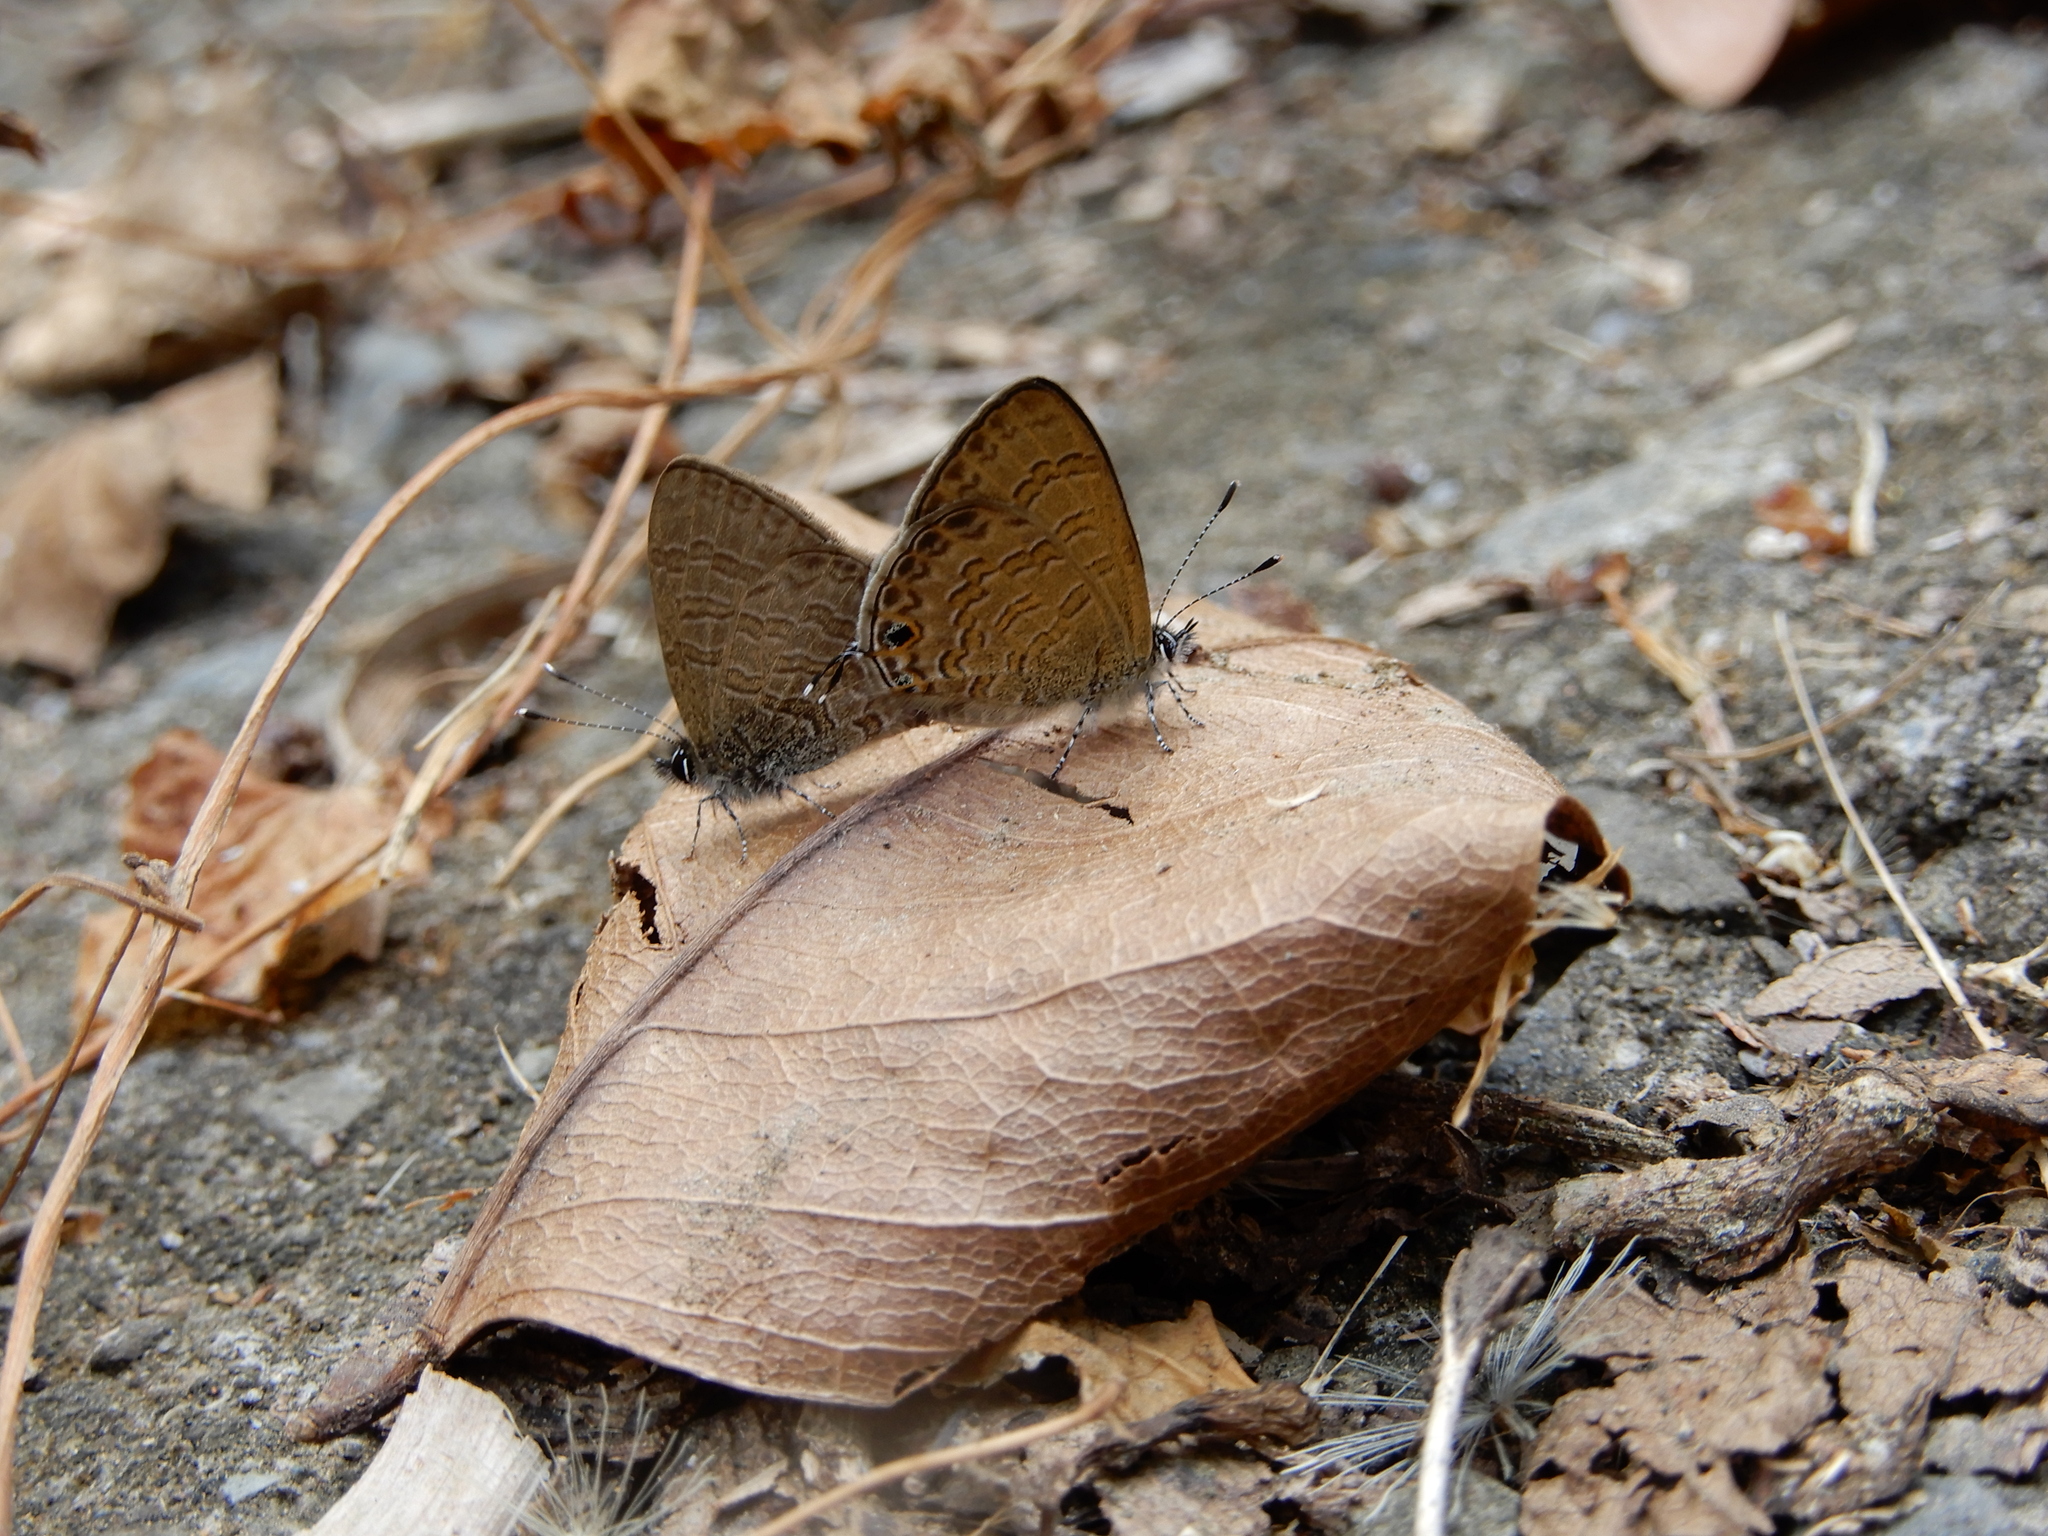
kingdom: Animalia
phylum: Arthropoda
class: Insecta
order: Lepidoptera
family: Lycaenidae
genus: Prosotas
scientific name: Prosotas nora
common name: Common line blue
